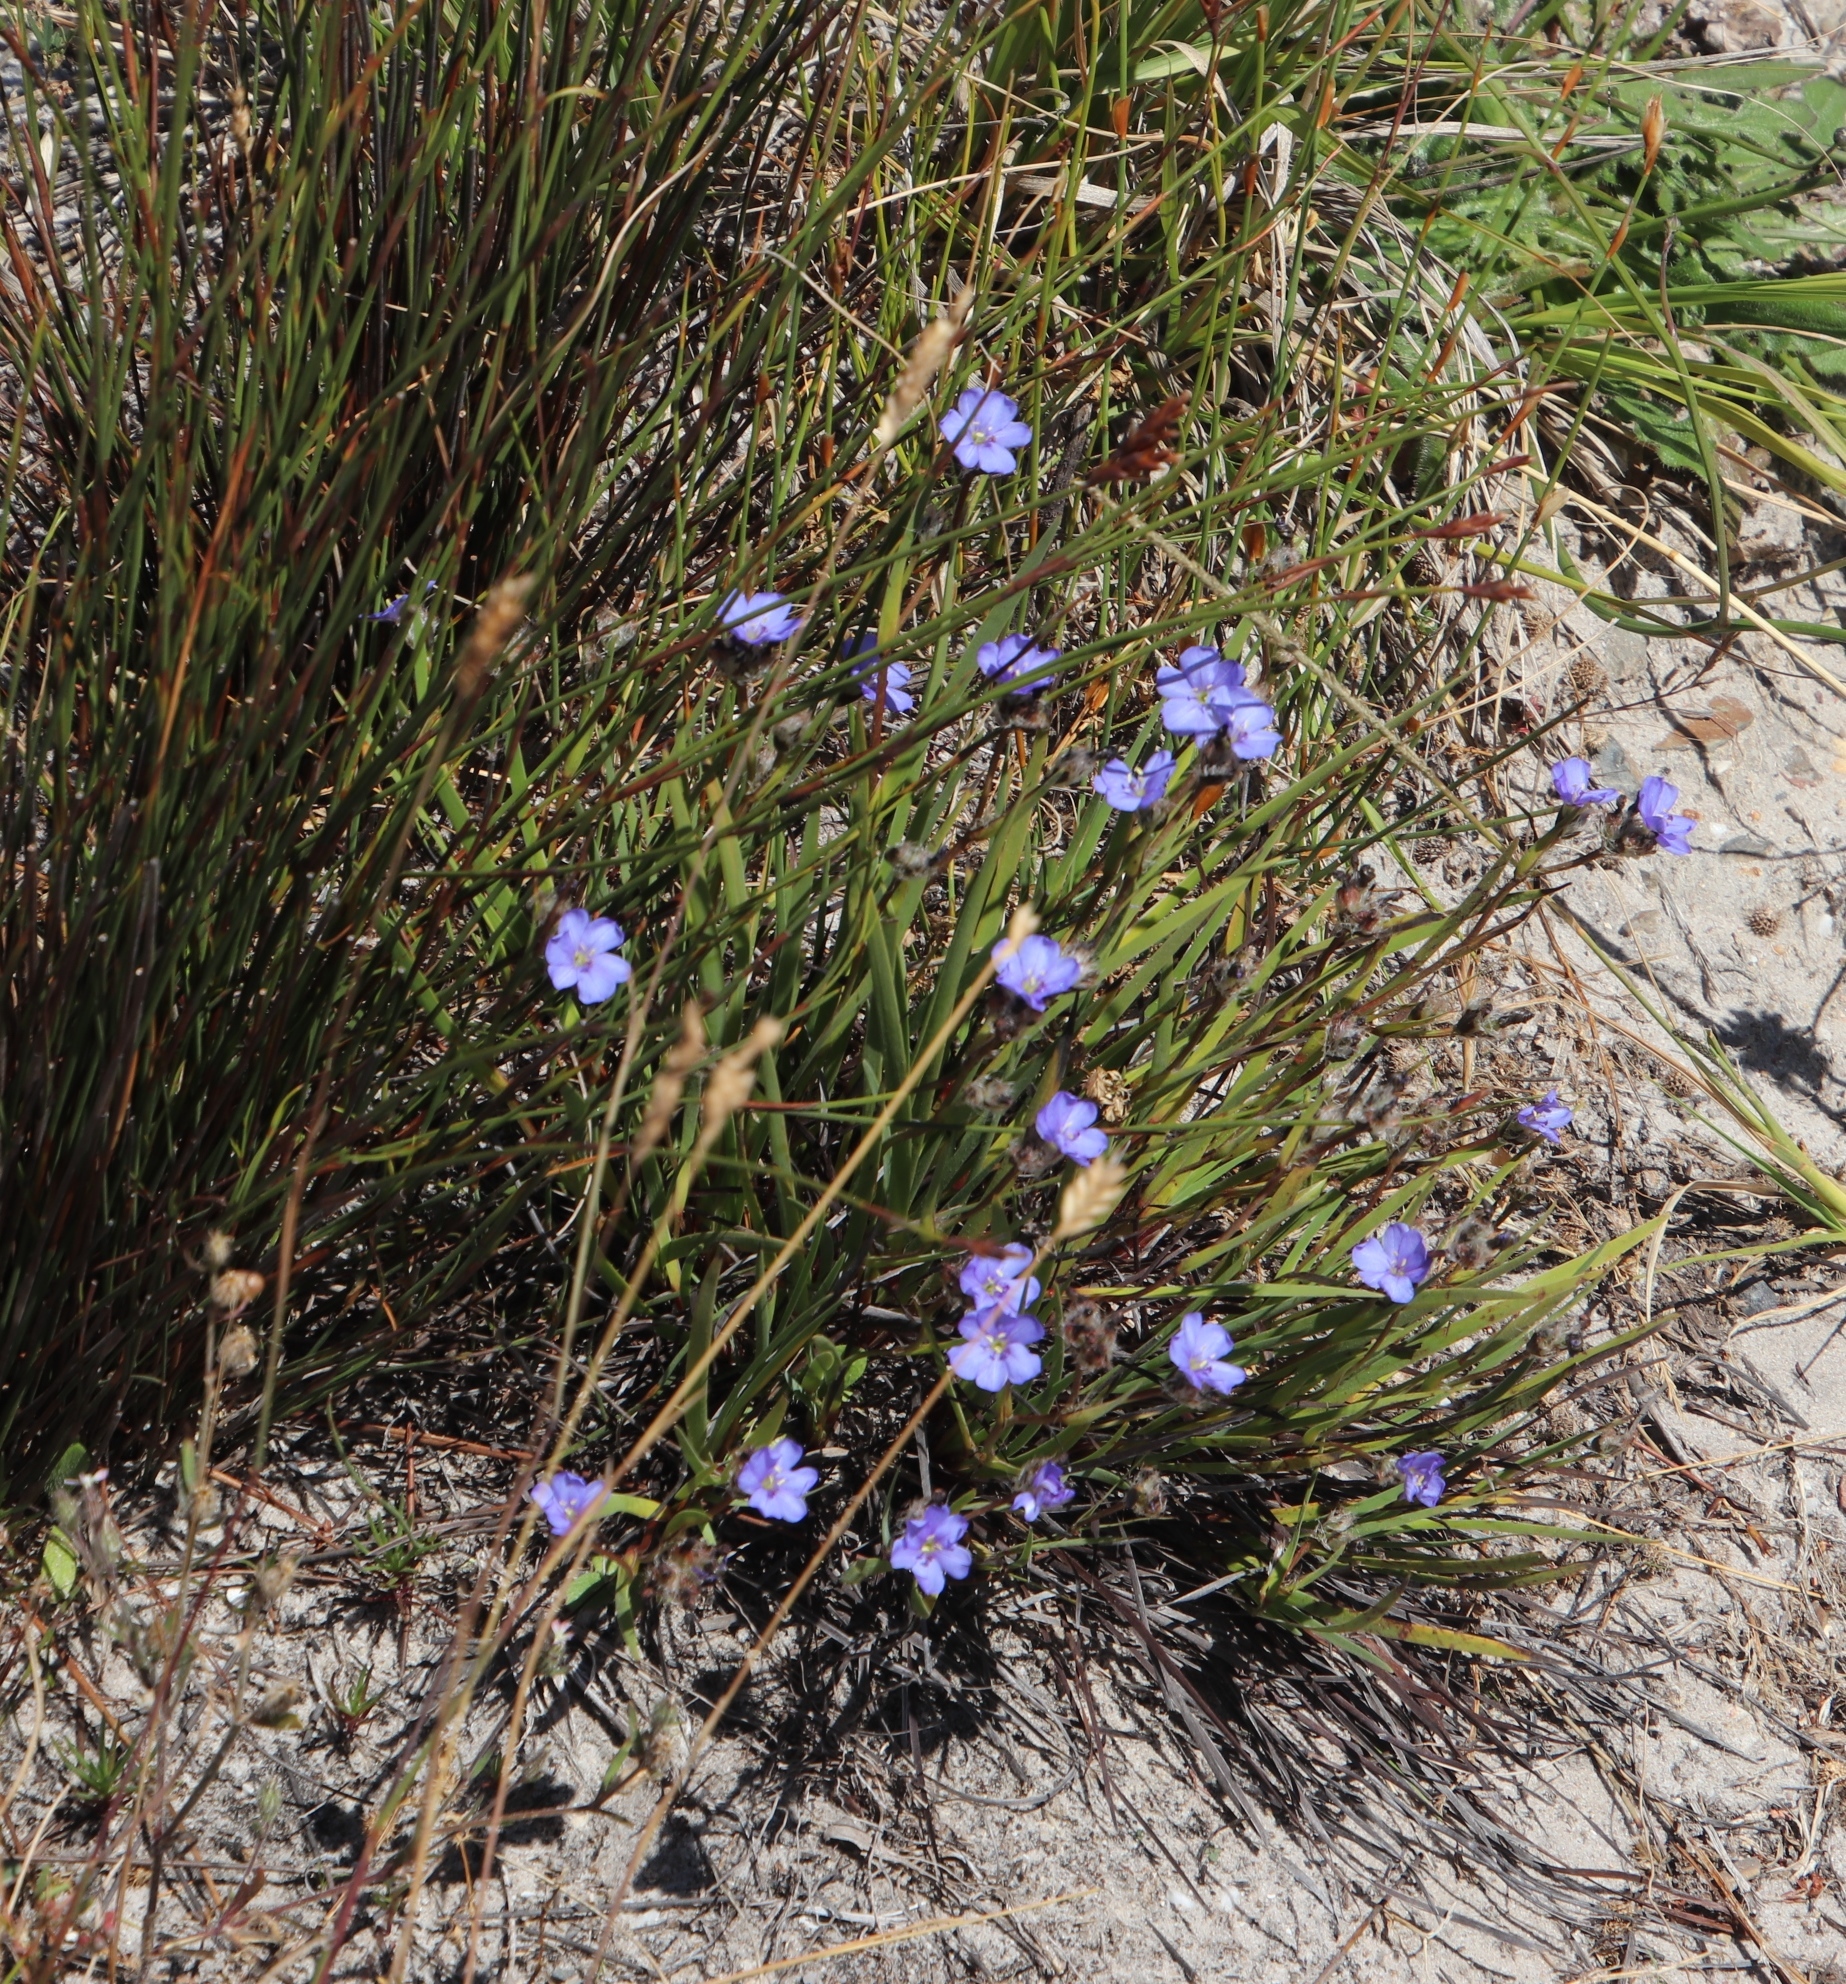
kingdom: Plantae
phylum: Tracheophyta
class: Liliopsida
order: Asparagales
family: Iridaceae
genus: Aristea
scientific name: Aristea africana
